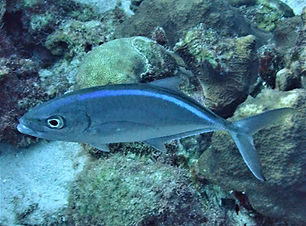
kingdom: Animalia
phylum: Chordata
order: Perciformes
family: Carangidae
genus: Caranx
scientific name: Caranx ruber
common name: Bar jack
